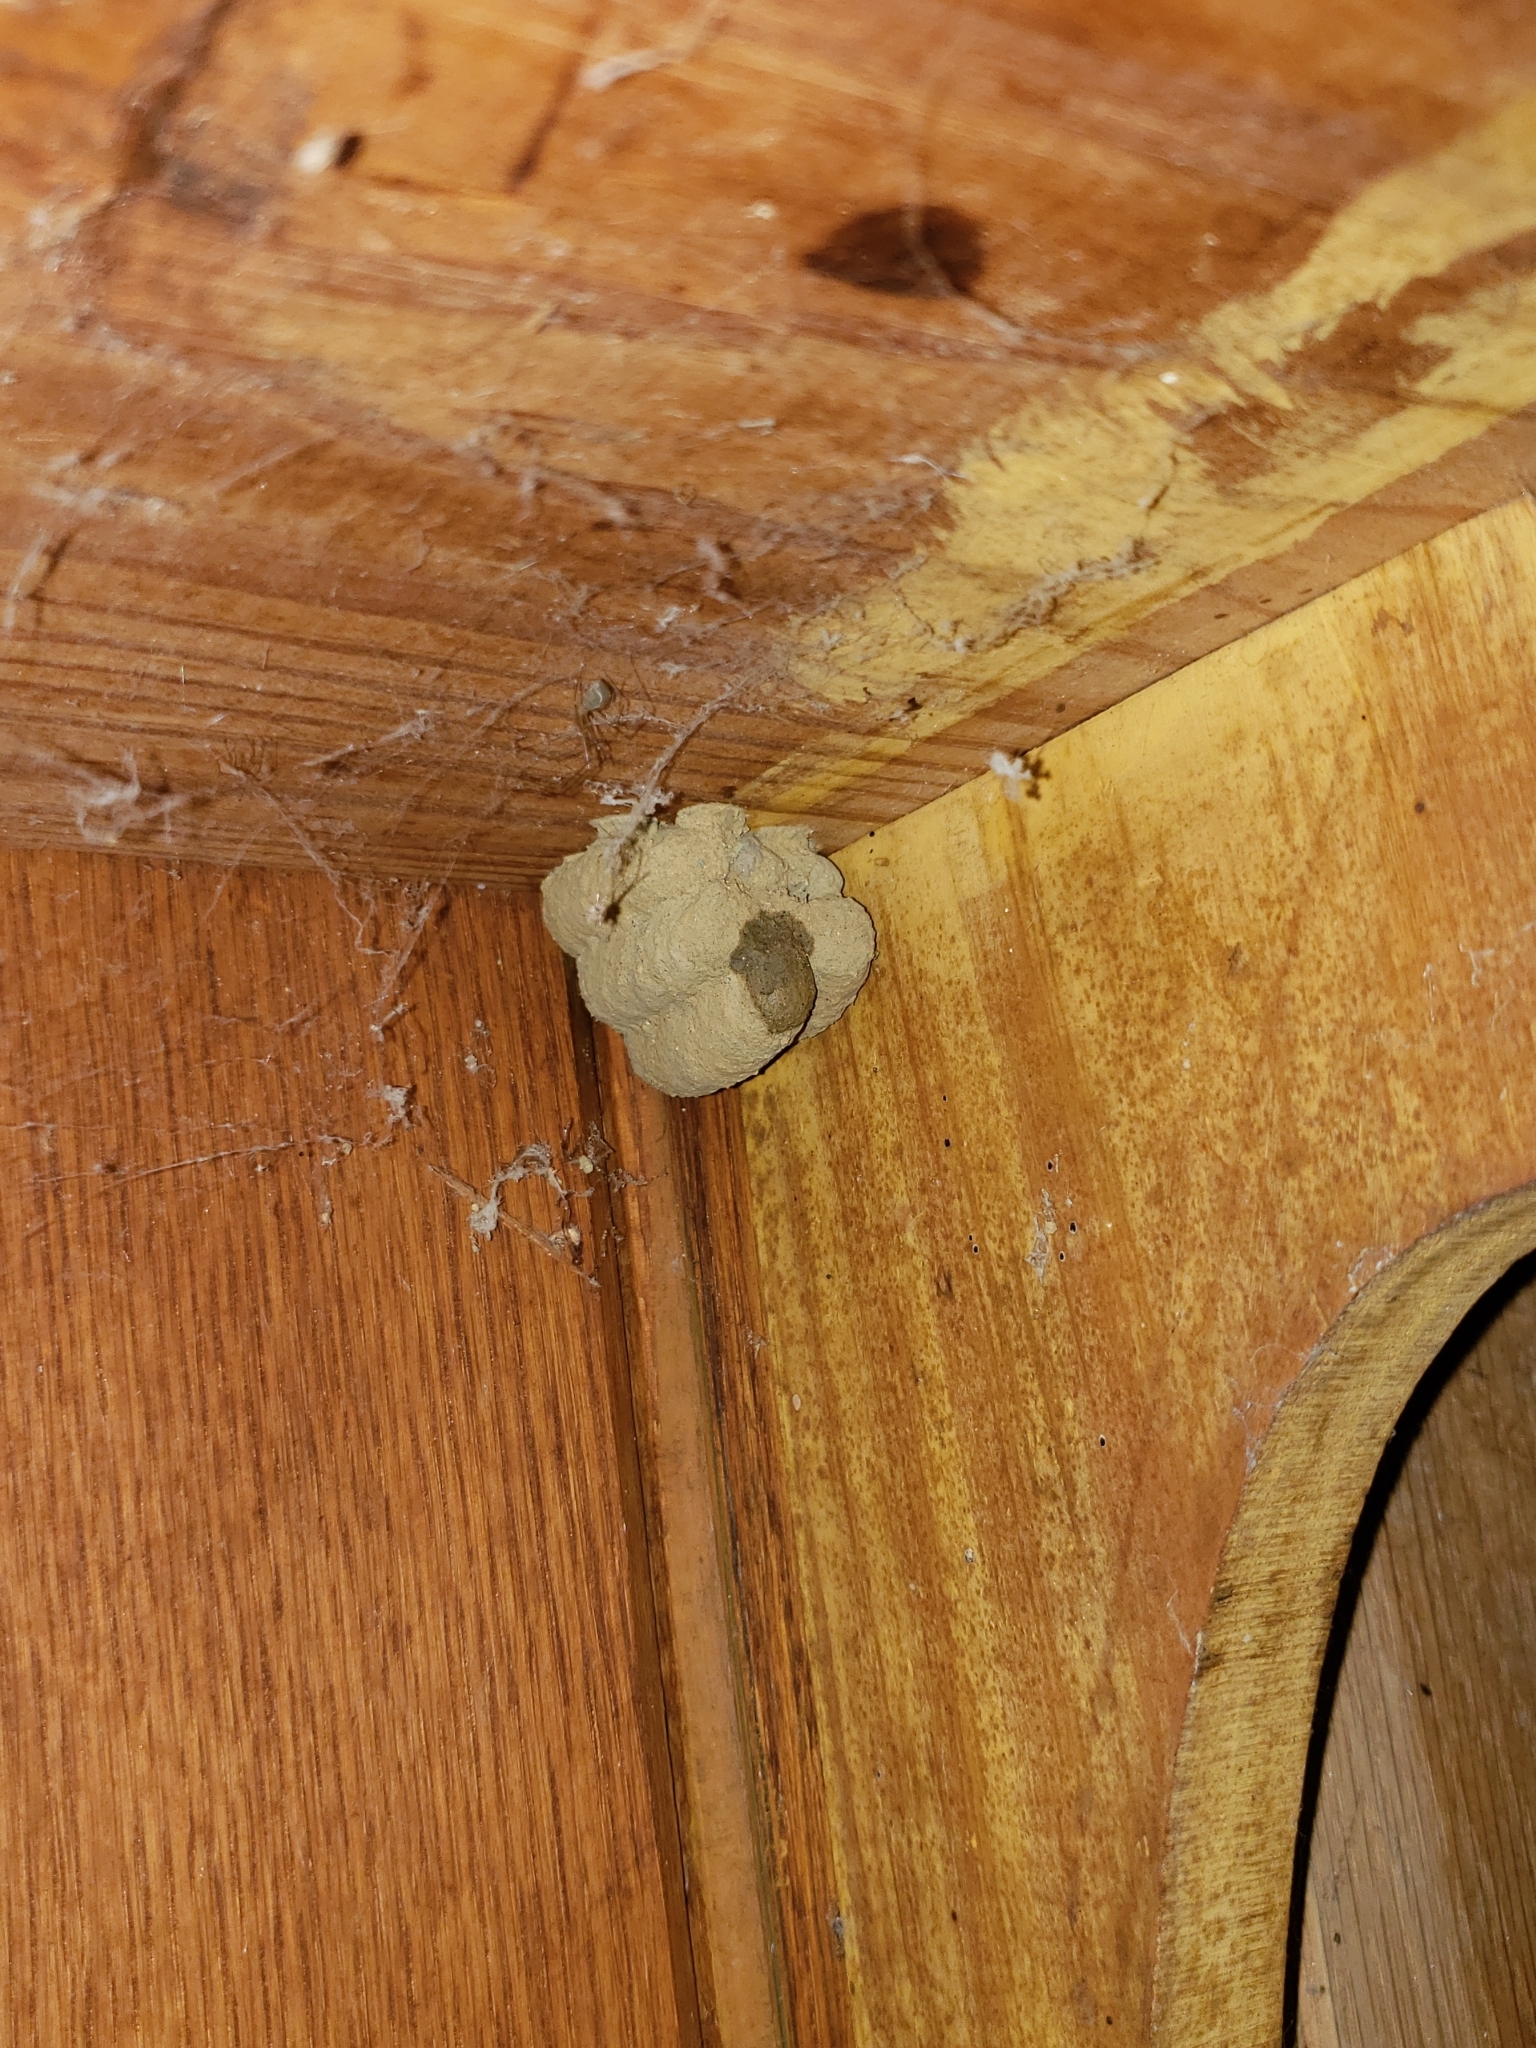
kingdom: Animalia
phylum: Arthropoda
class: Insecta
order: Hymenoptera
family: Sphecidae
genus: Sceliphron
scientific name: Sceliphron caementarium
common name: Mud dauber
